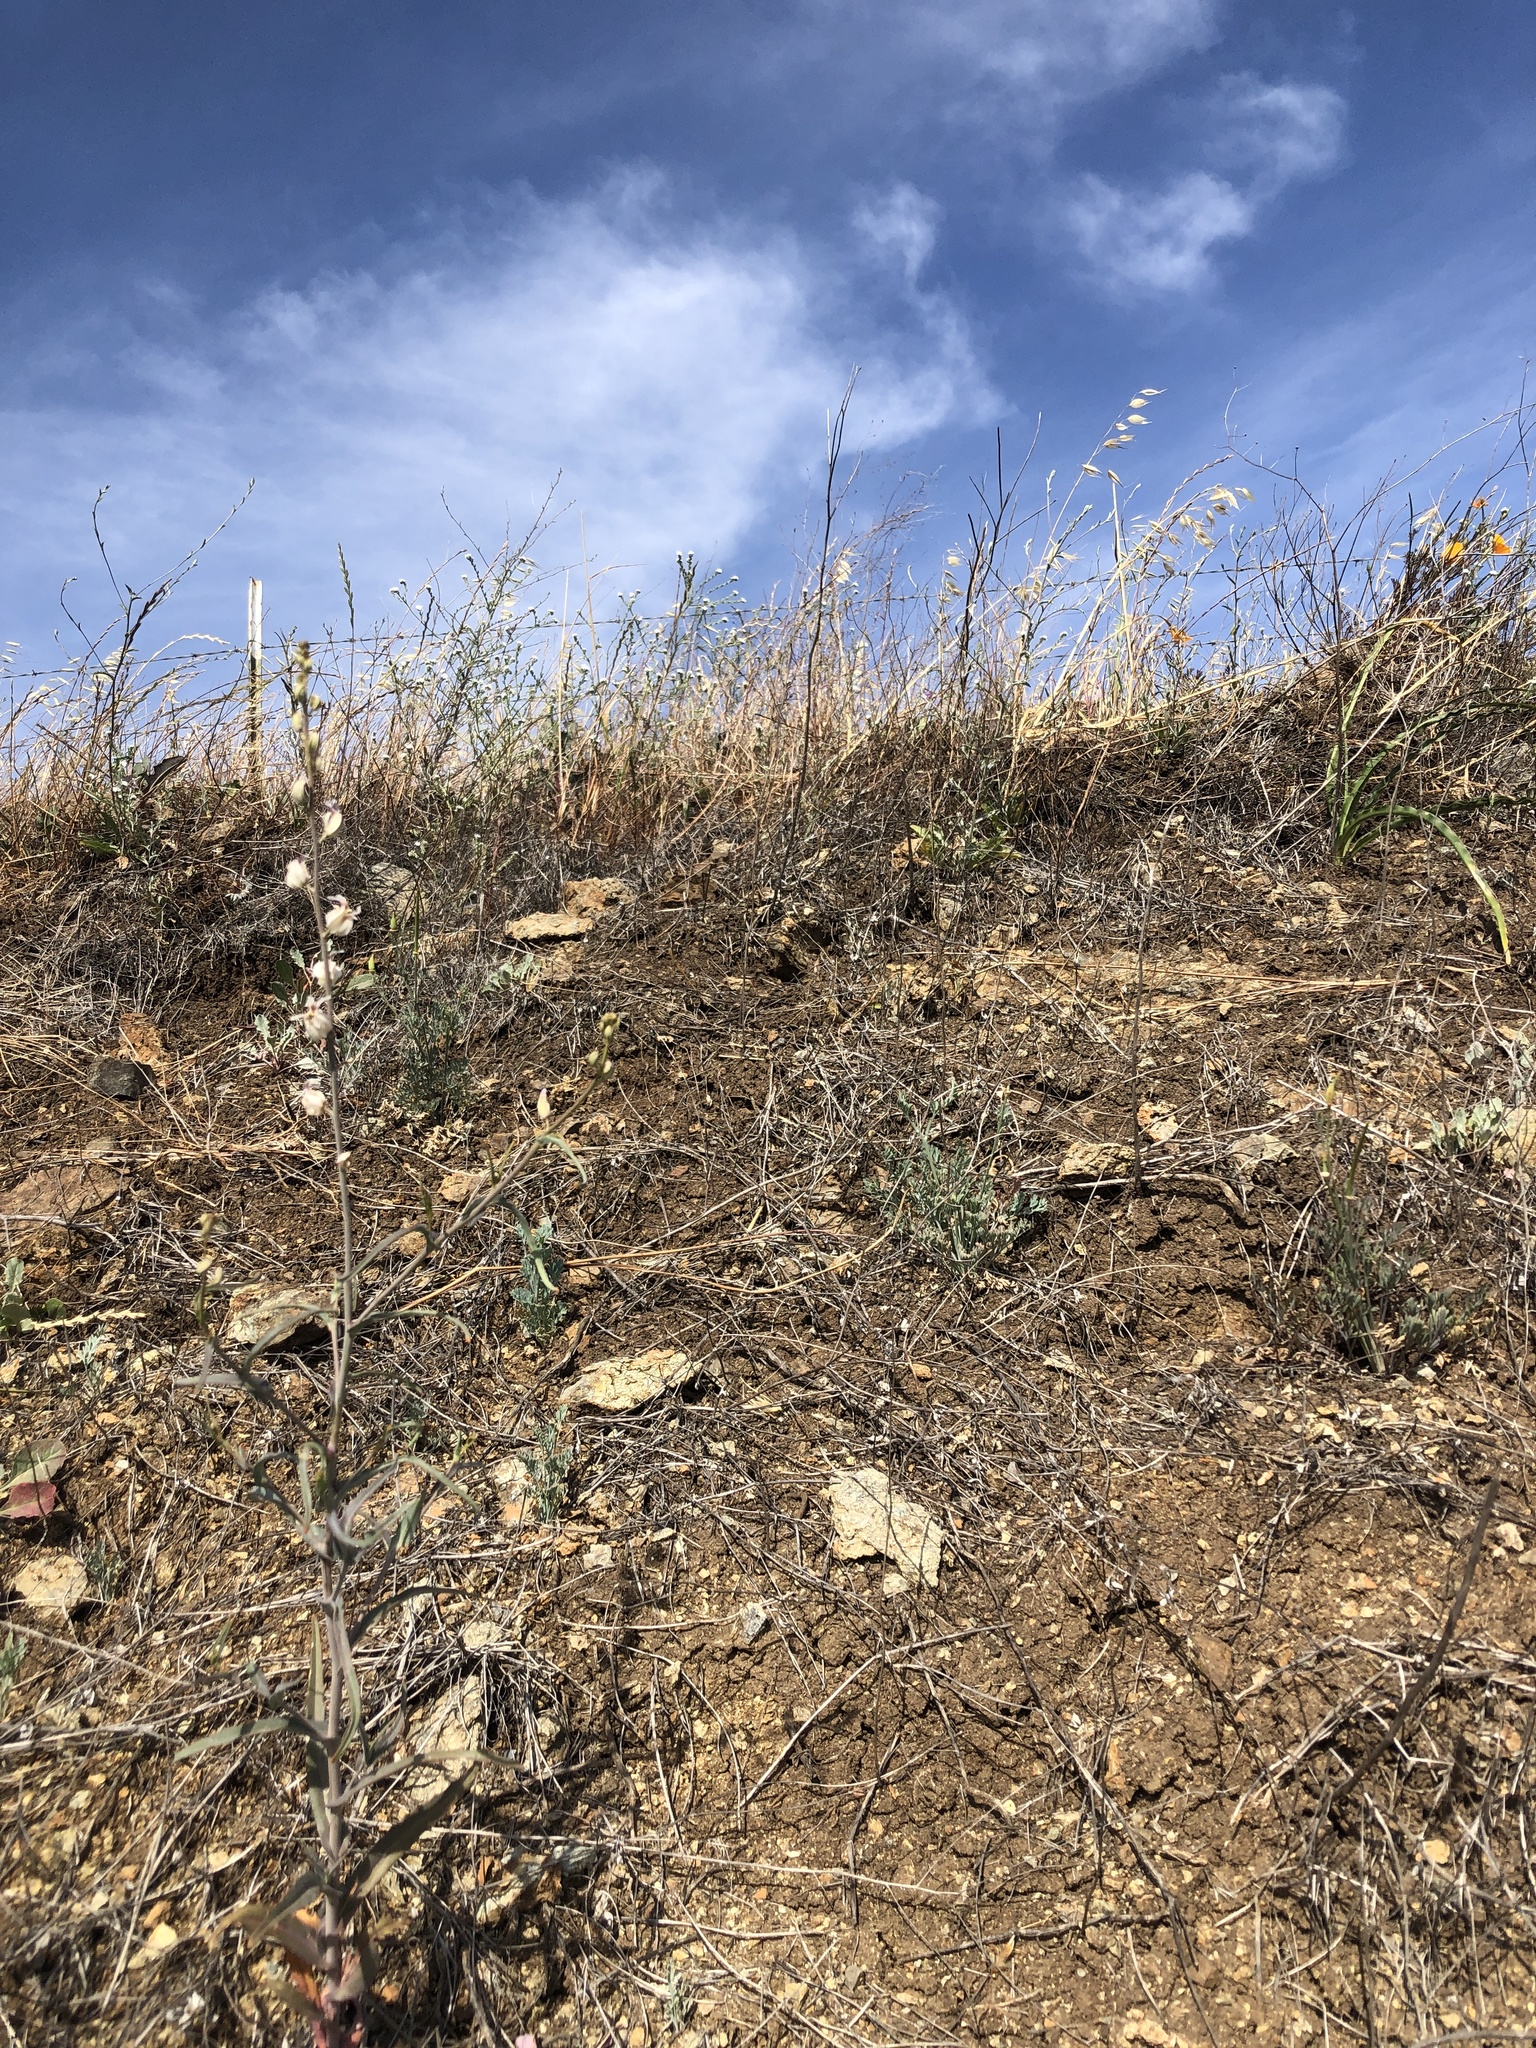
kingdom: Plantae
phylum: Tracheophyta
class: Magnoliopsida
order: Brassicales
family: Brassicaceae
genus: Streptanthus
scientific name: Streptanthus glandulosus
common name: Jewel-flower
